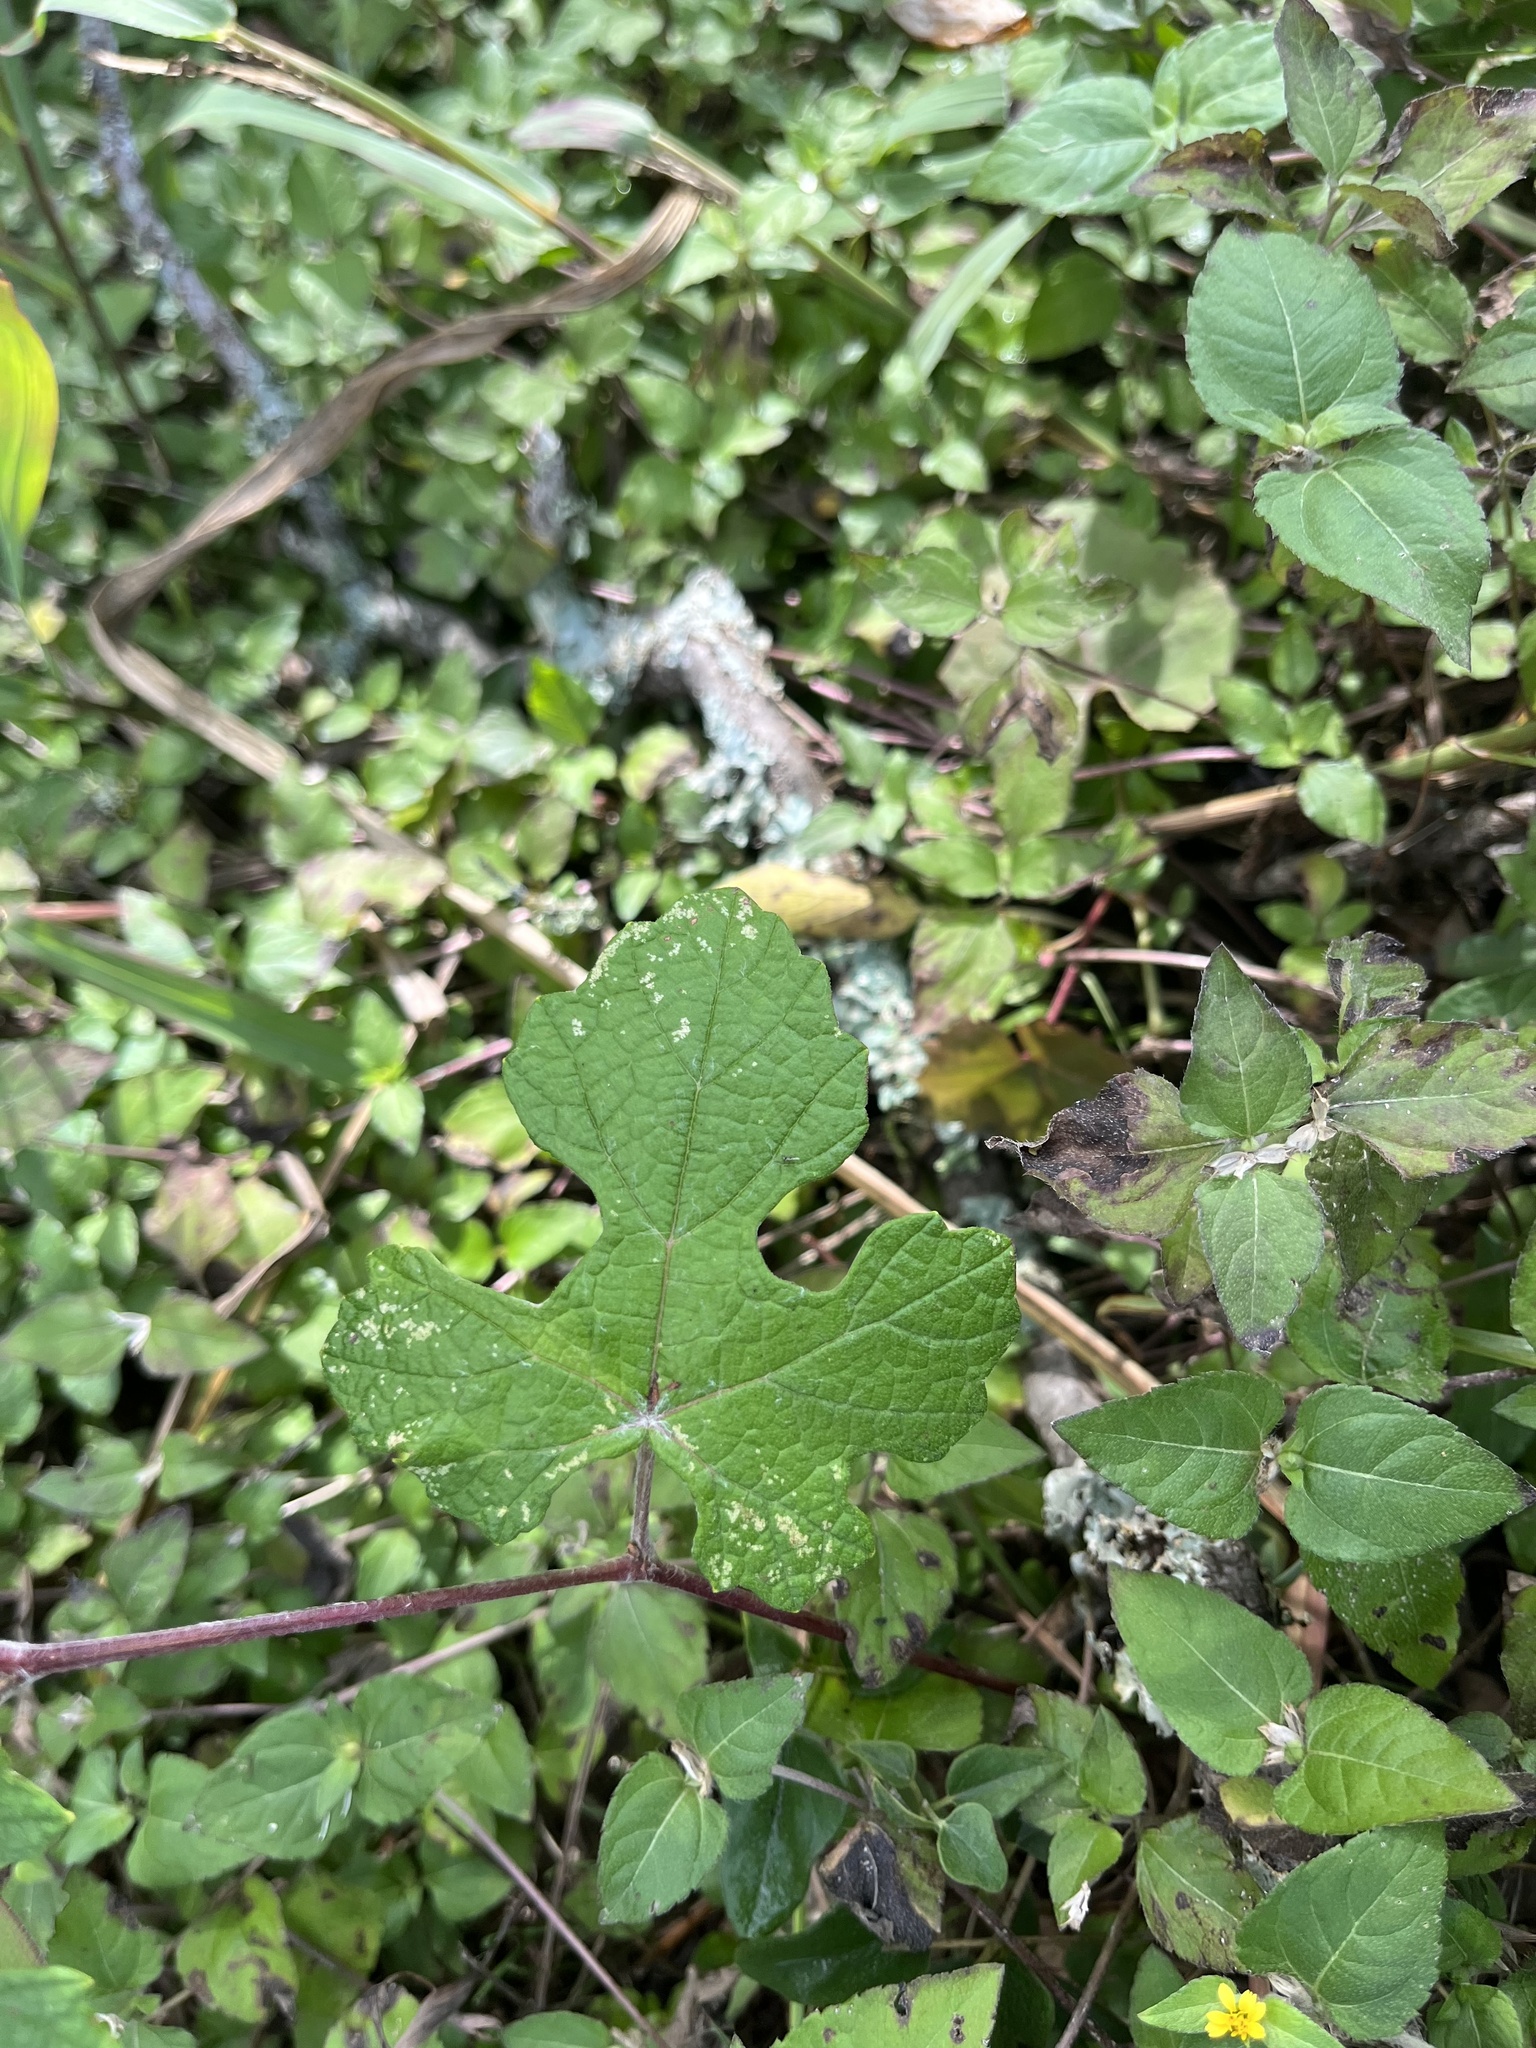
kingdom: Plantae
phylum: Tracheophyta
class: Magnoliopsida
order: Vitales
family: Vitaceae
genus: Vitis
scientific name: Vitis mustangensis
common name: Mustang grape
